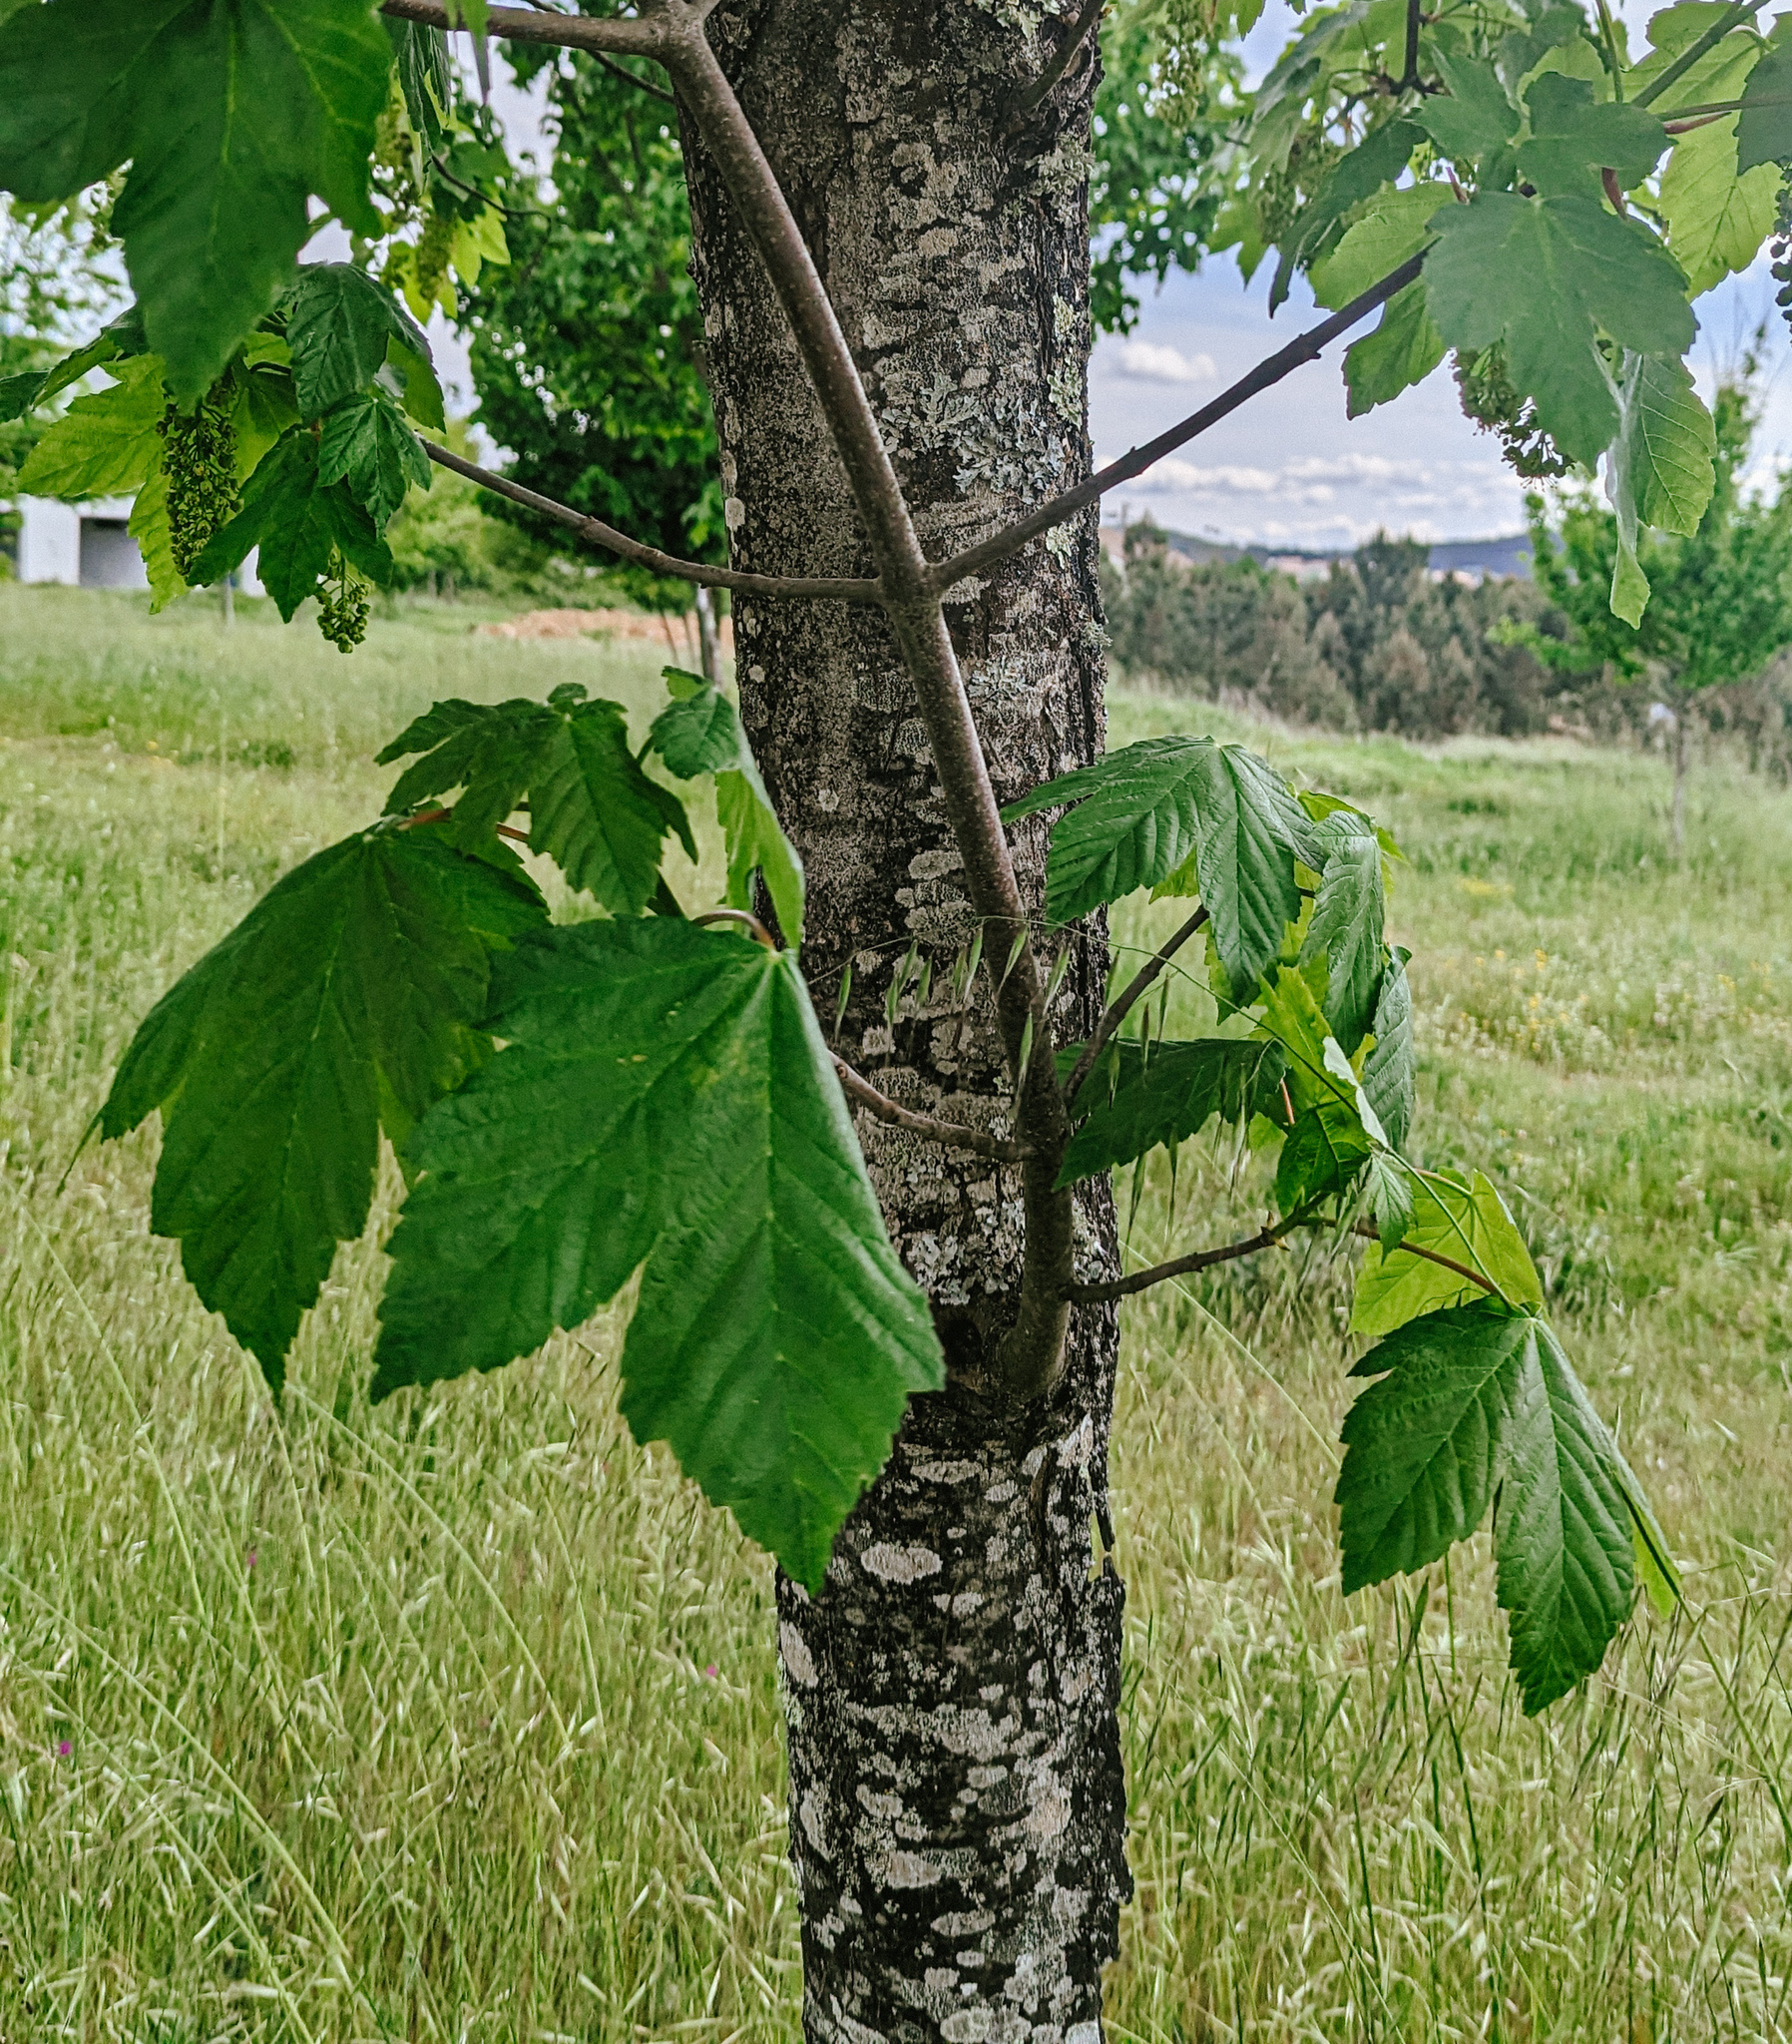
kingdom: Plantae
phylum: Tracheophyta
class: Magnoliopsida
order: Sapindales
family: Sapindaceae
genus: Acer
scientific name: Acer pseudoplatanus
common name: Sycamore
